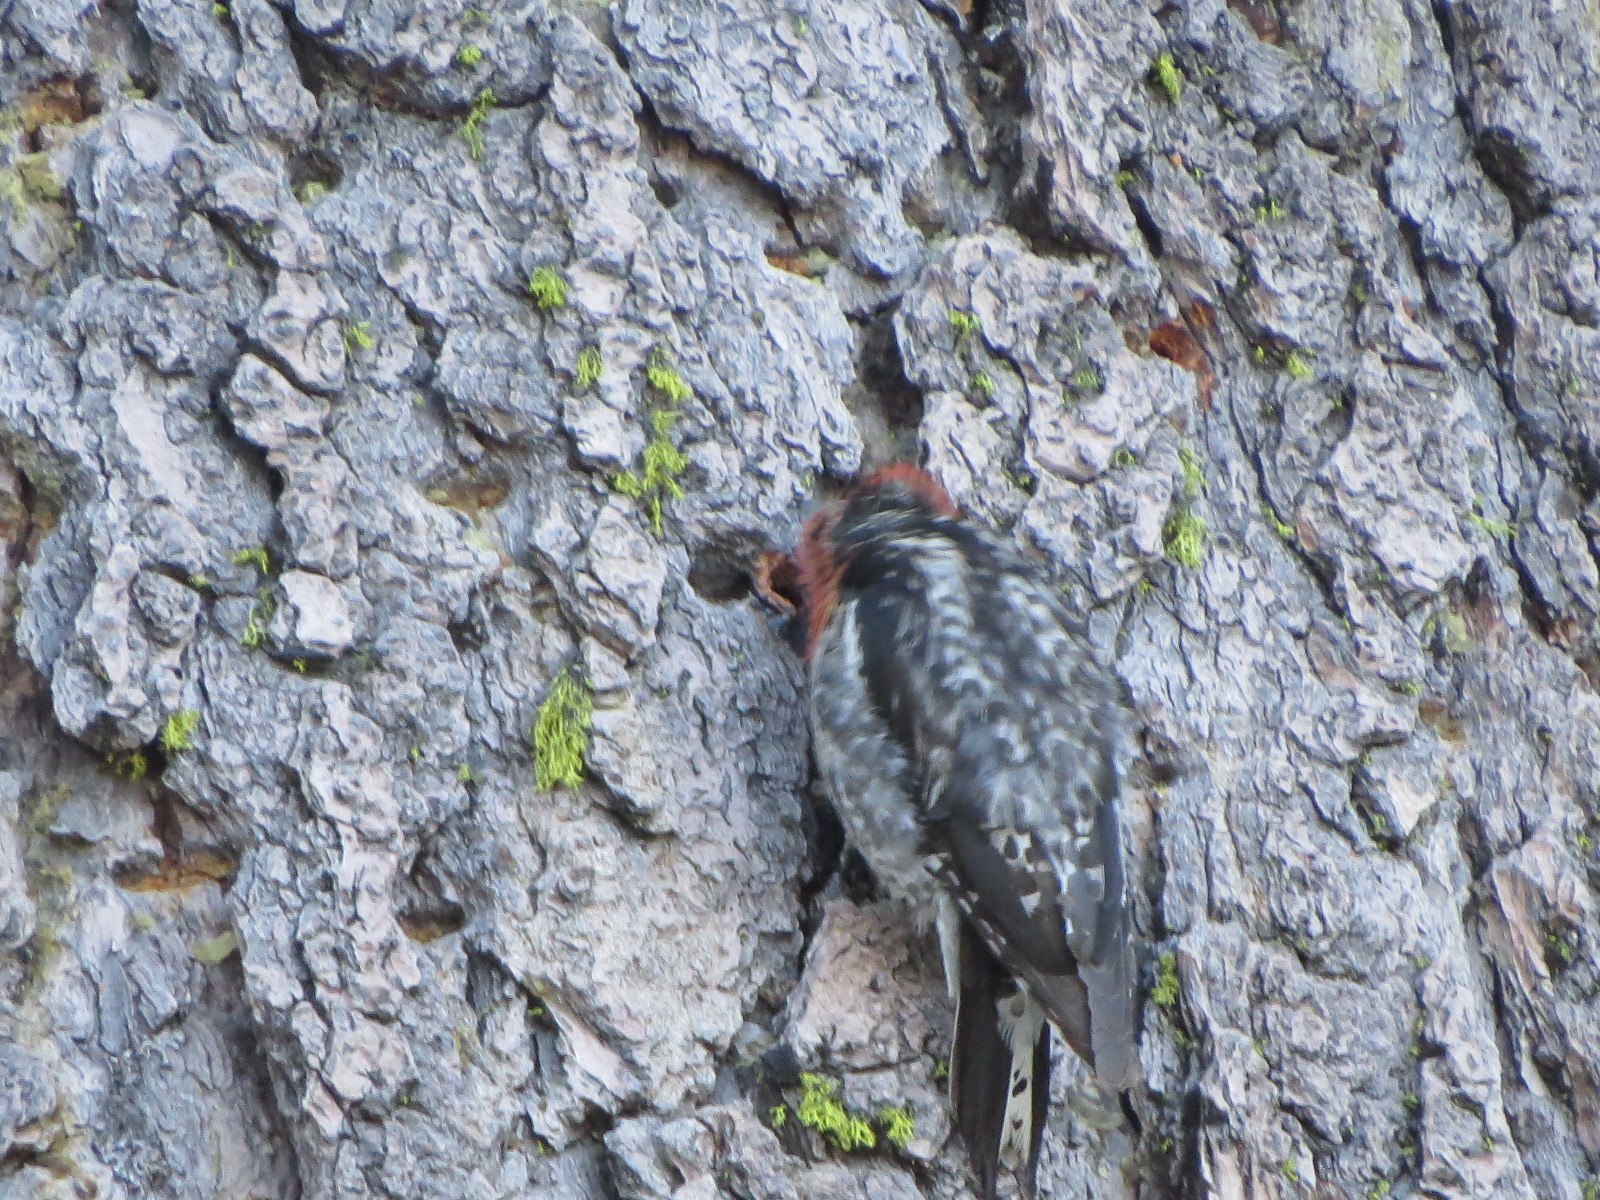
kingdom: Animalia
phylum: Chordata
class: Aves
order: Piciformes
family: Picidae
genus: Sphyrapicus
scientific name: Sphyrapicus ruber
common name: Red-breasted sapsucker
